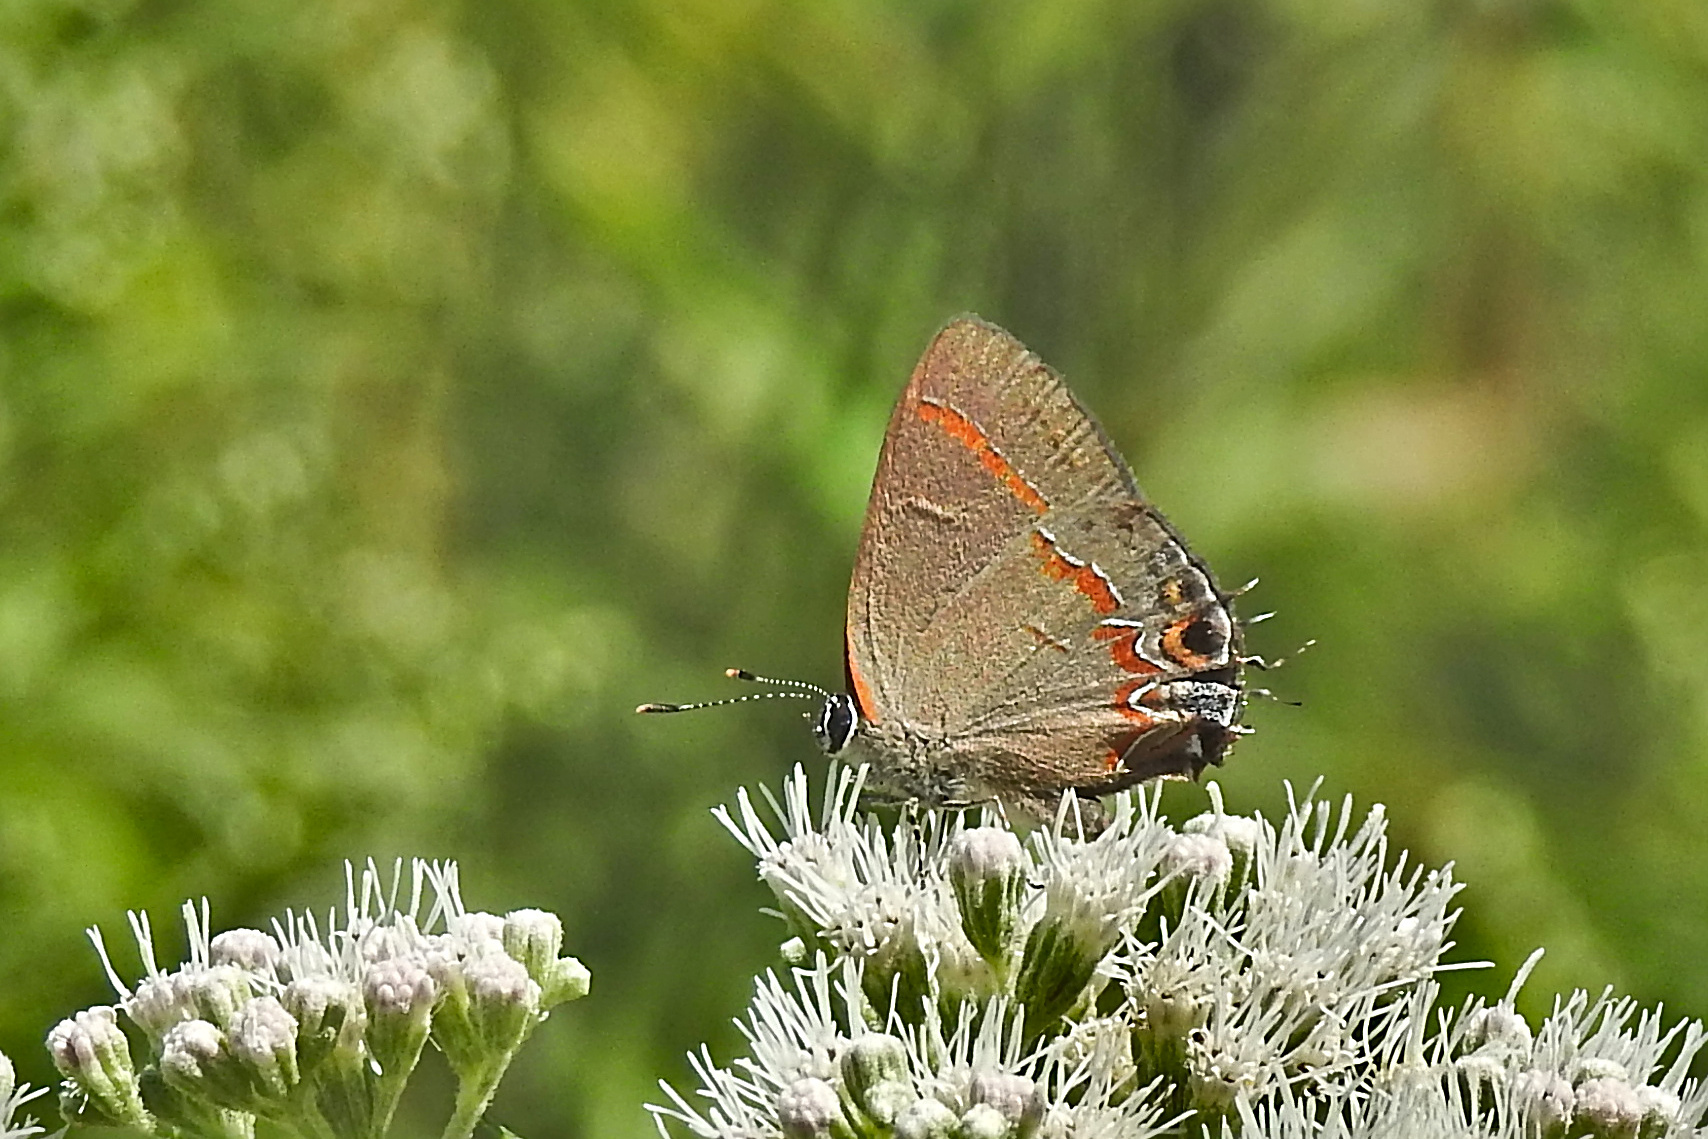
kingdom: Animalia
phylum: Arthropoda
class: Insecta
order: Lepidoptera
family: Lycaenidae
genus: Calycopis
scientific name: Calycopis cecrops
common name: Red-banded hairstreak
